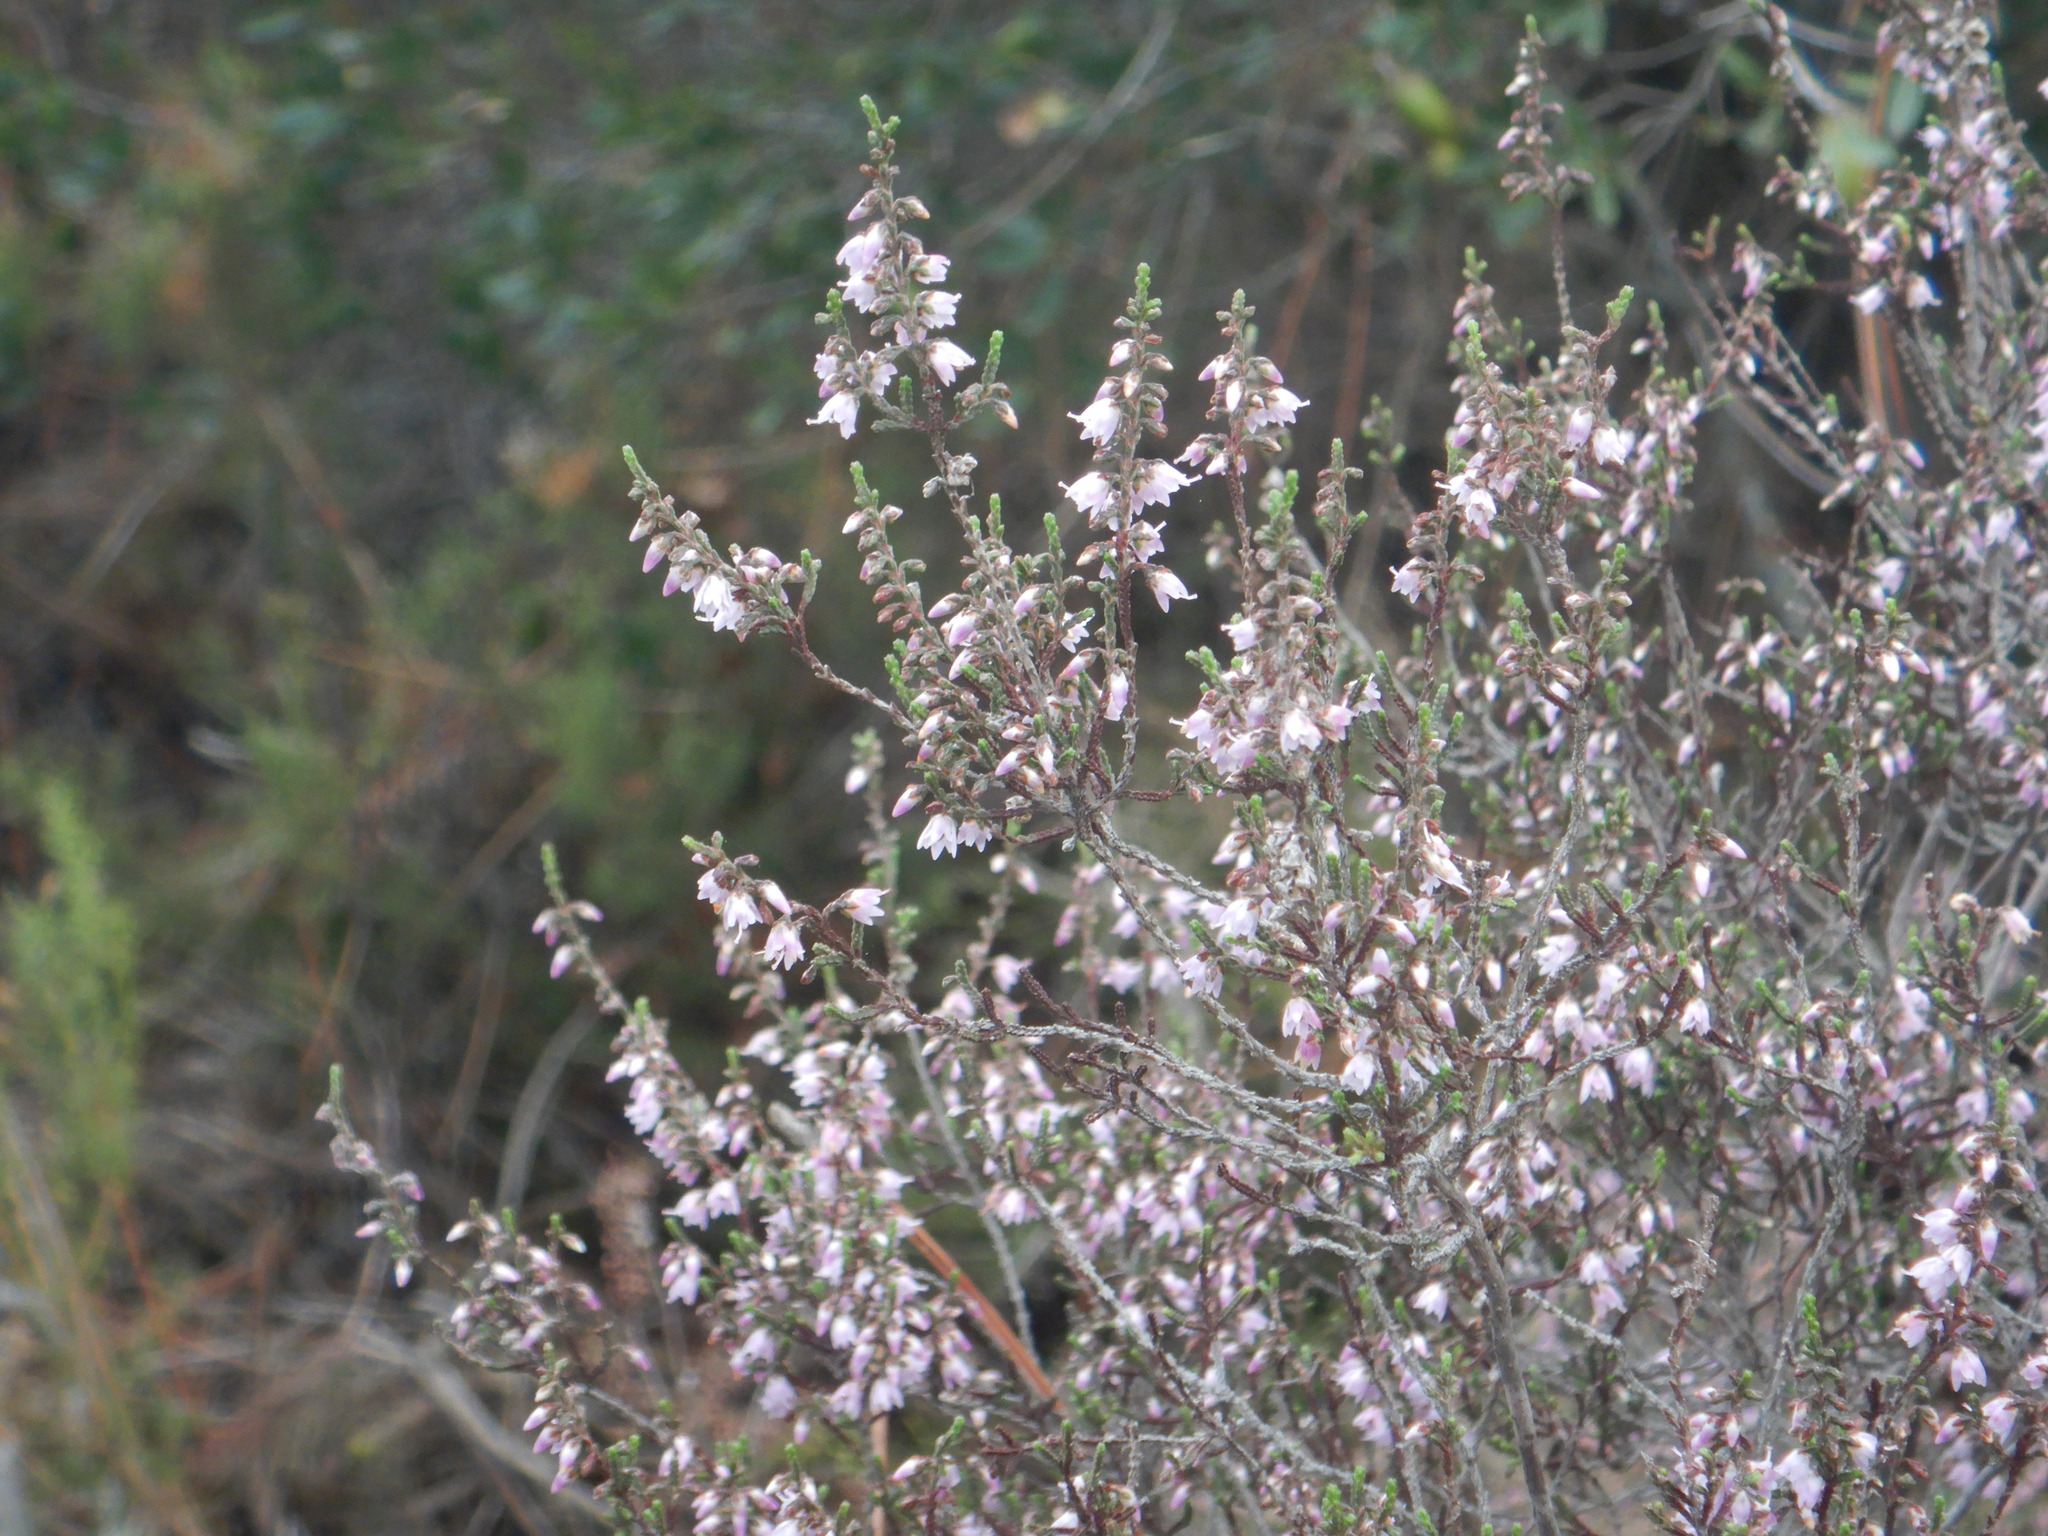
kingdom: Plantae
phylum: Tracheophyta
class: Magnoliopsida
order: Ericales
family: Ericaceae
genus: Calluna
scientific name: Calluna vulgaris
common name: Heather
